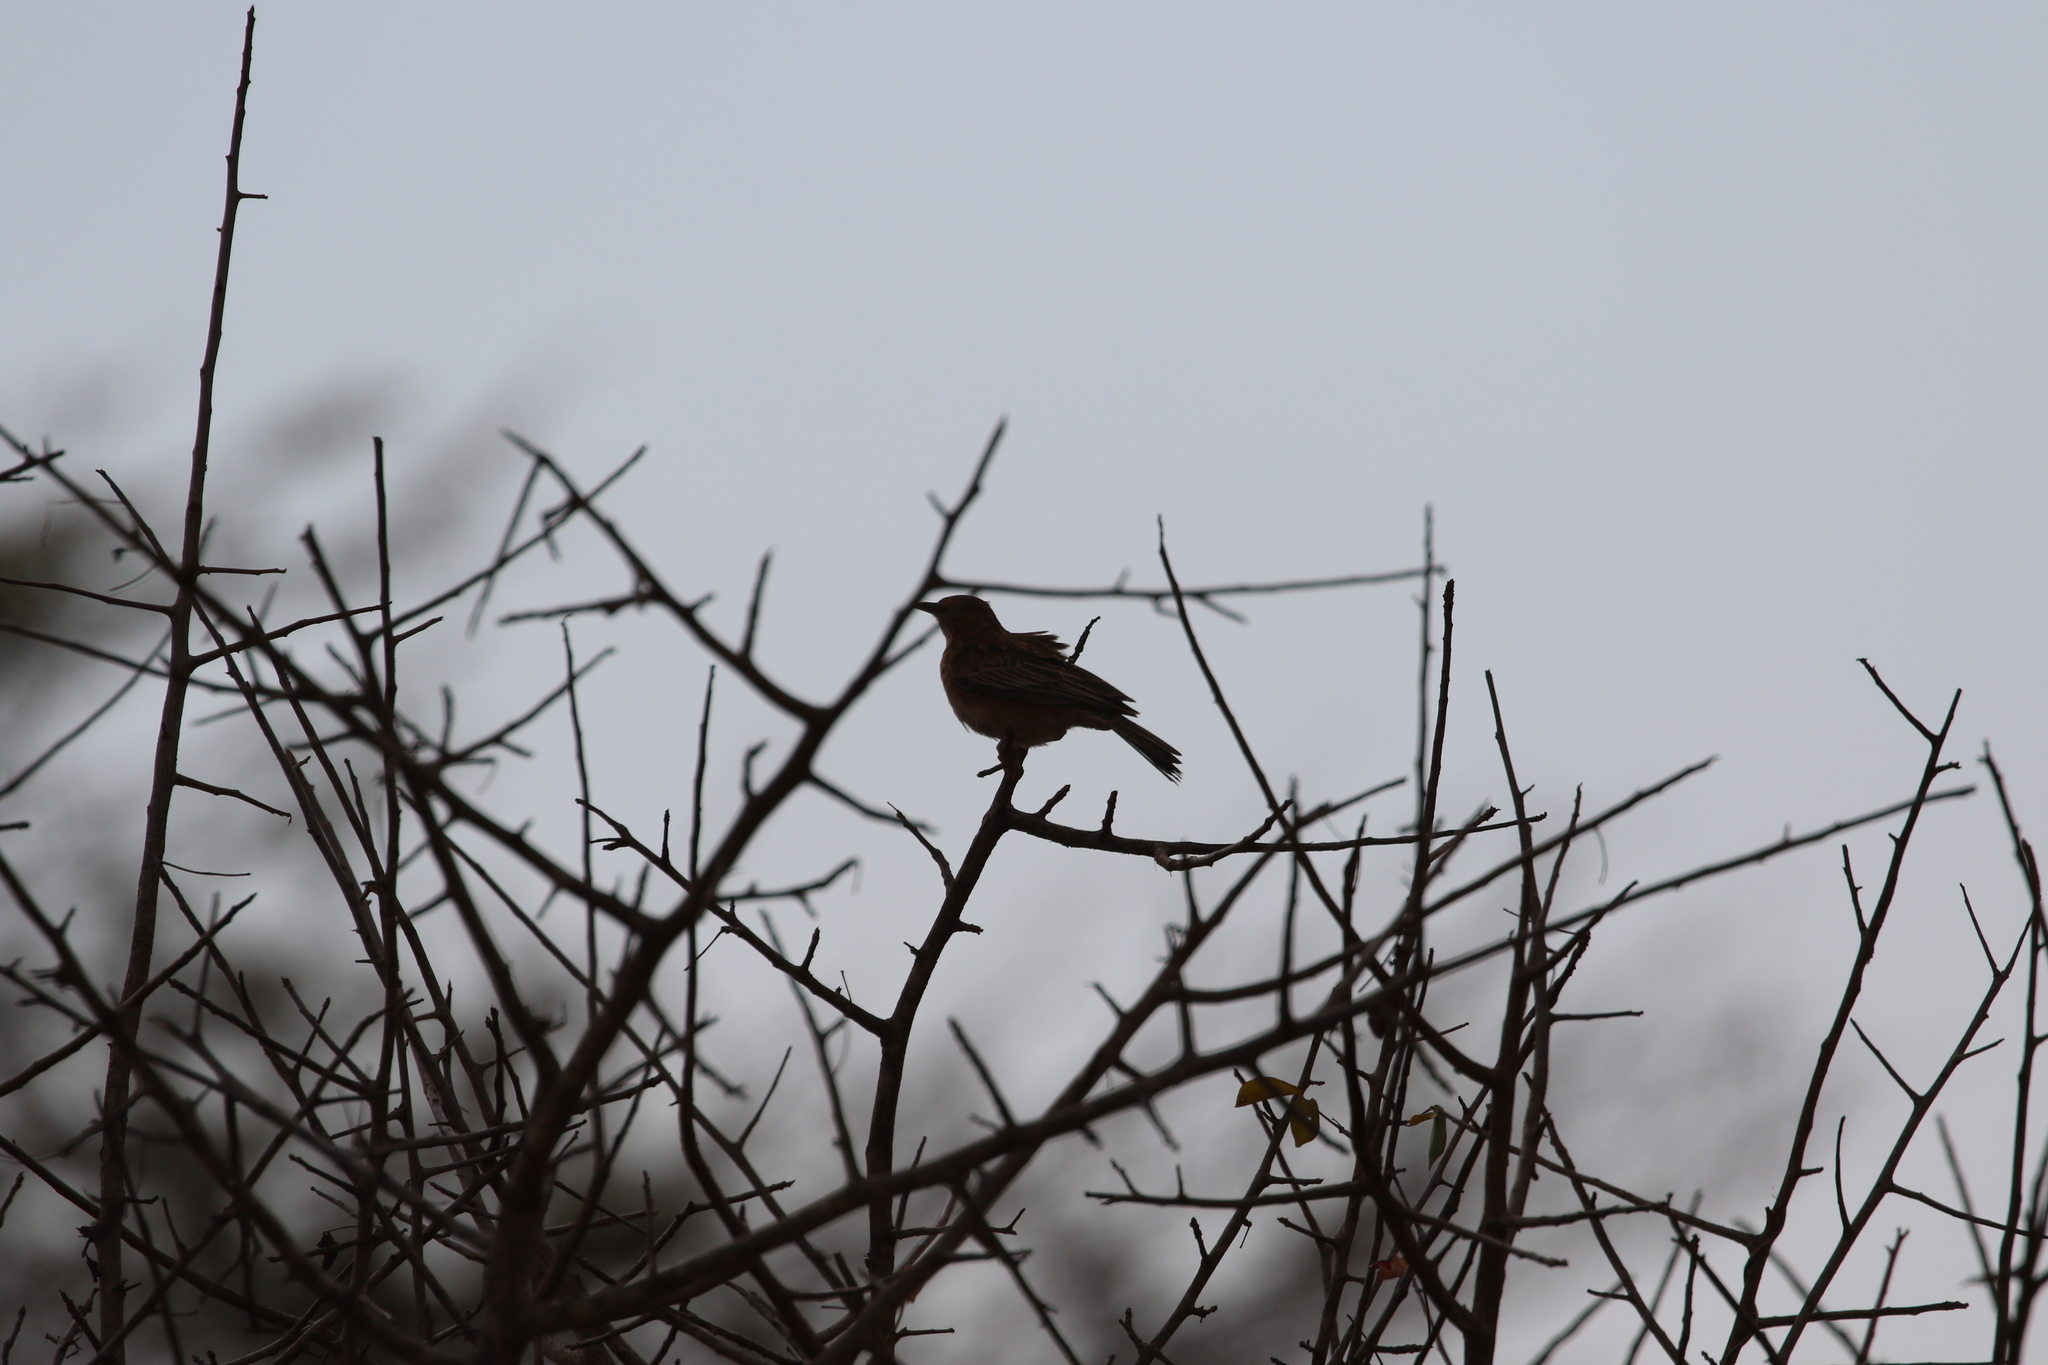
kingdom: Animalia
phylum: Chordata
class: Aves
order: Passeriformes
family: Alaudidae
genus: Calendulauda
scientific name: Calendulauda poecilosterna
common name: Pink-breasted lark
